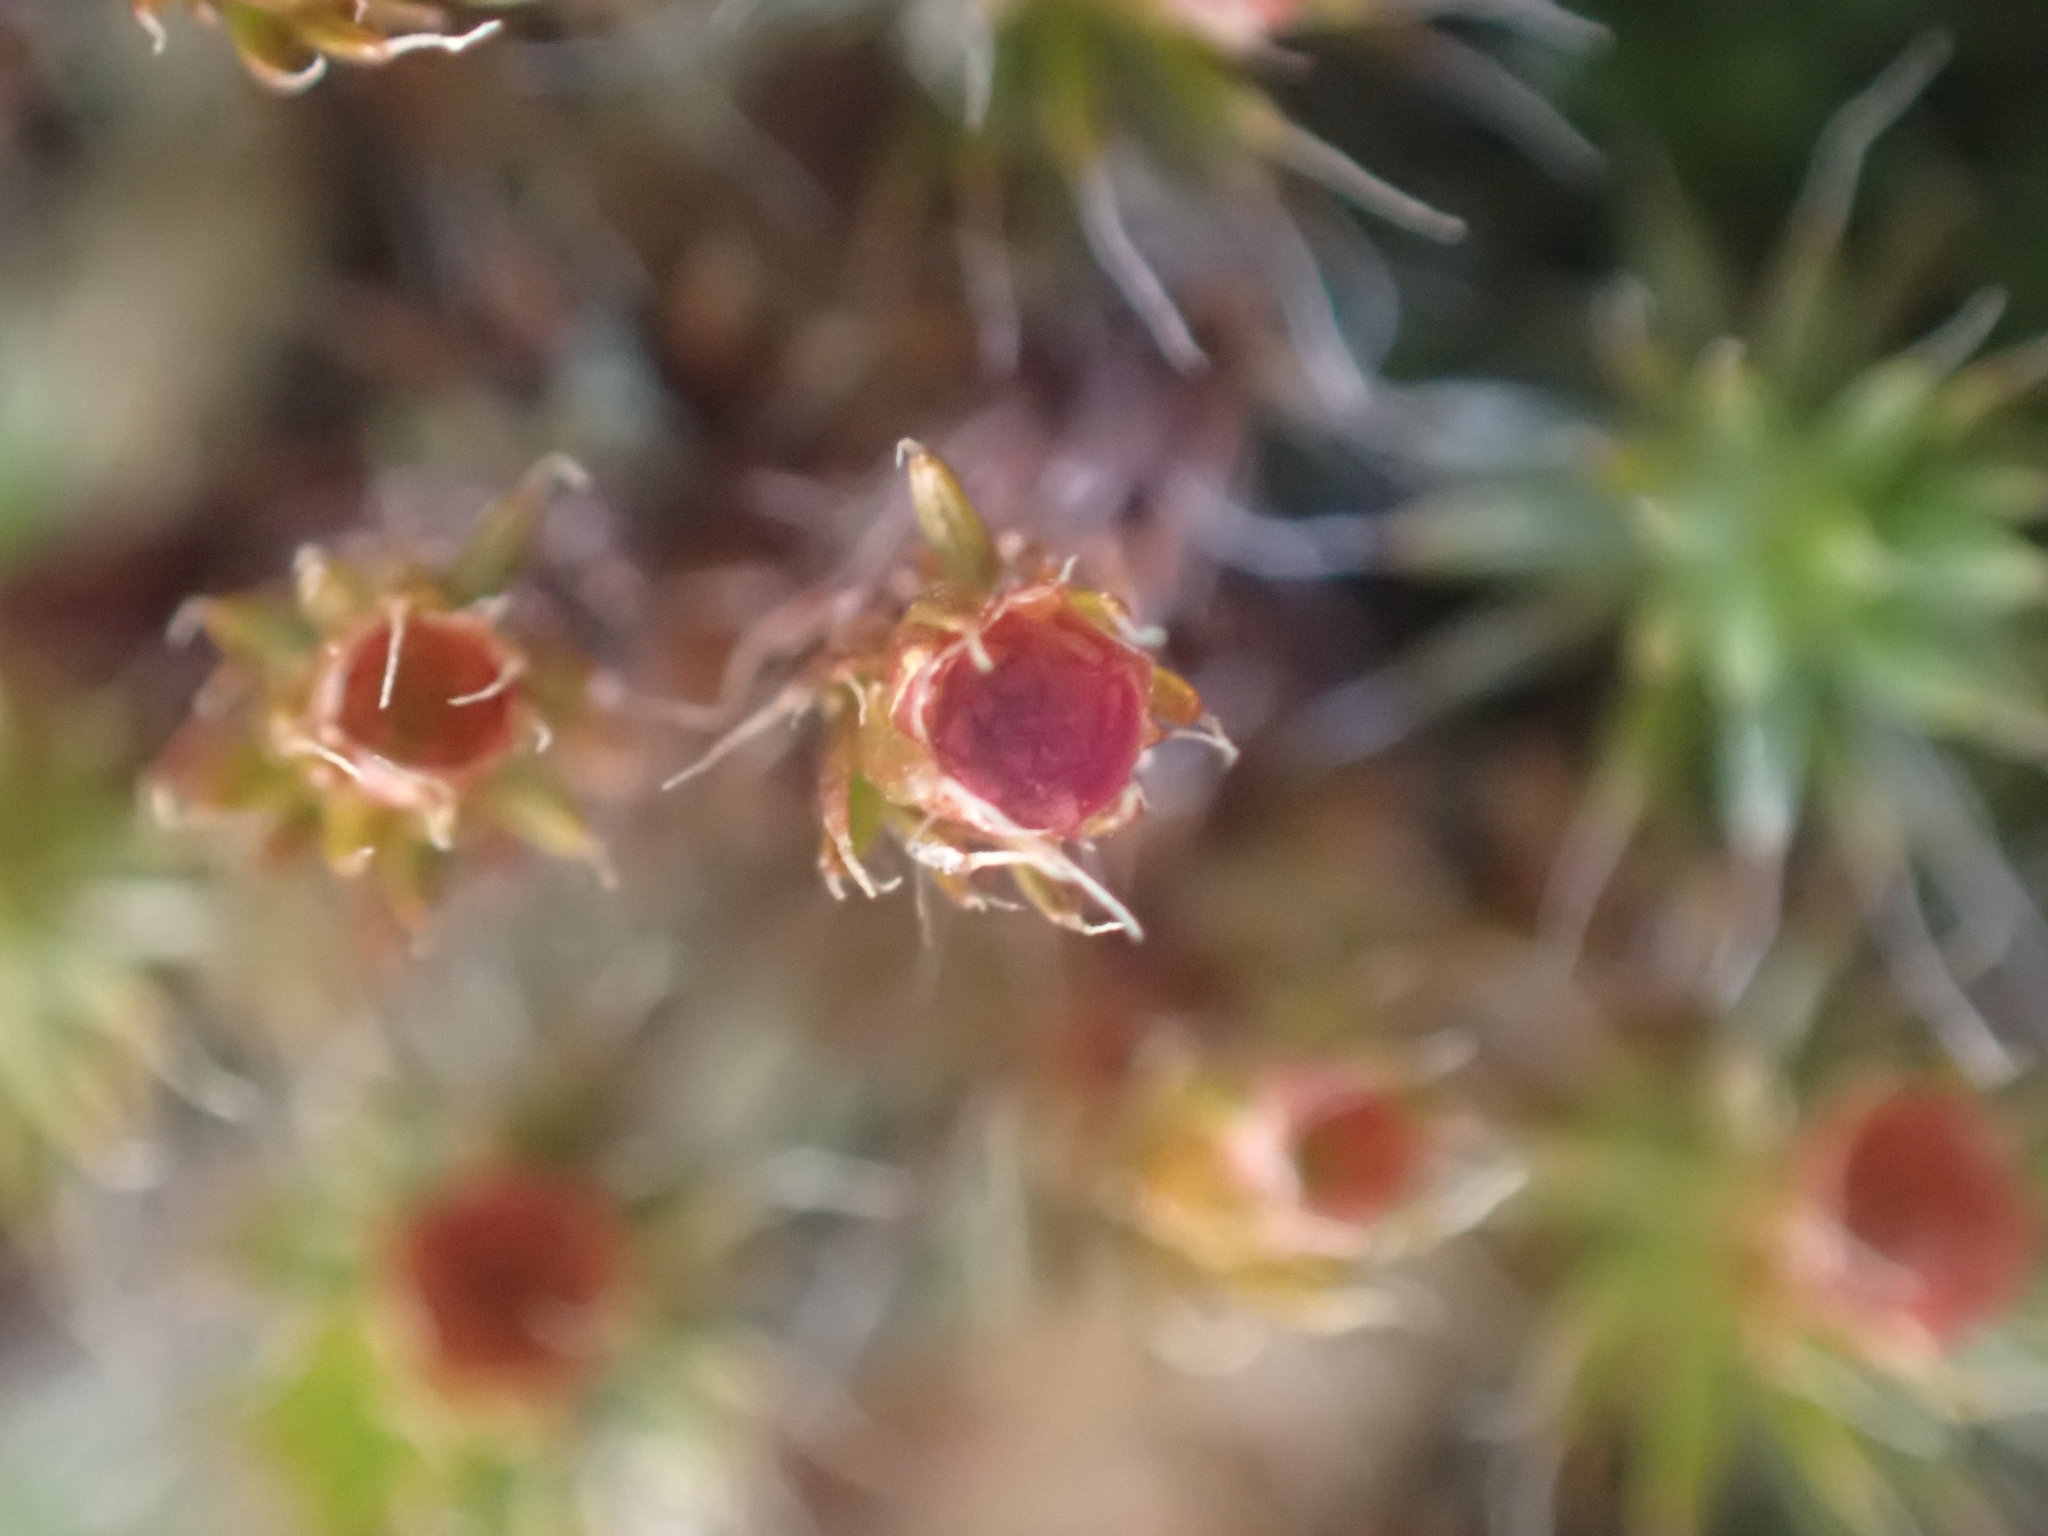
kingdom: Plantae
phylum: Bryophyta
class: Polytrichopsida
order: Polytrichales
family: Polytrichaceae
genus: Polytrichum
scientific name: Polytrichum piliferum
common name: Bristly haircap
